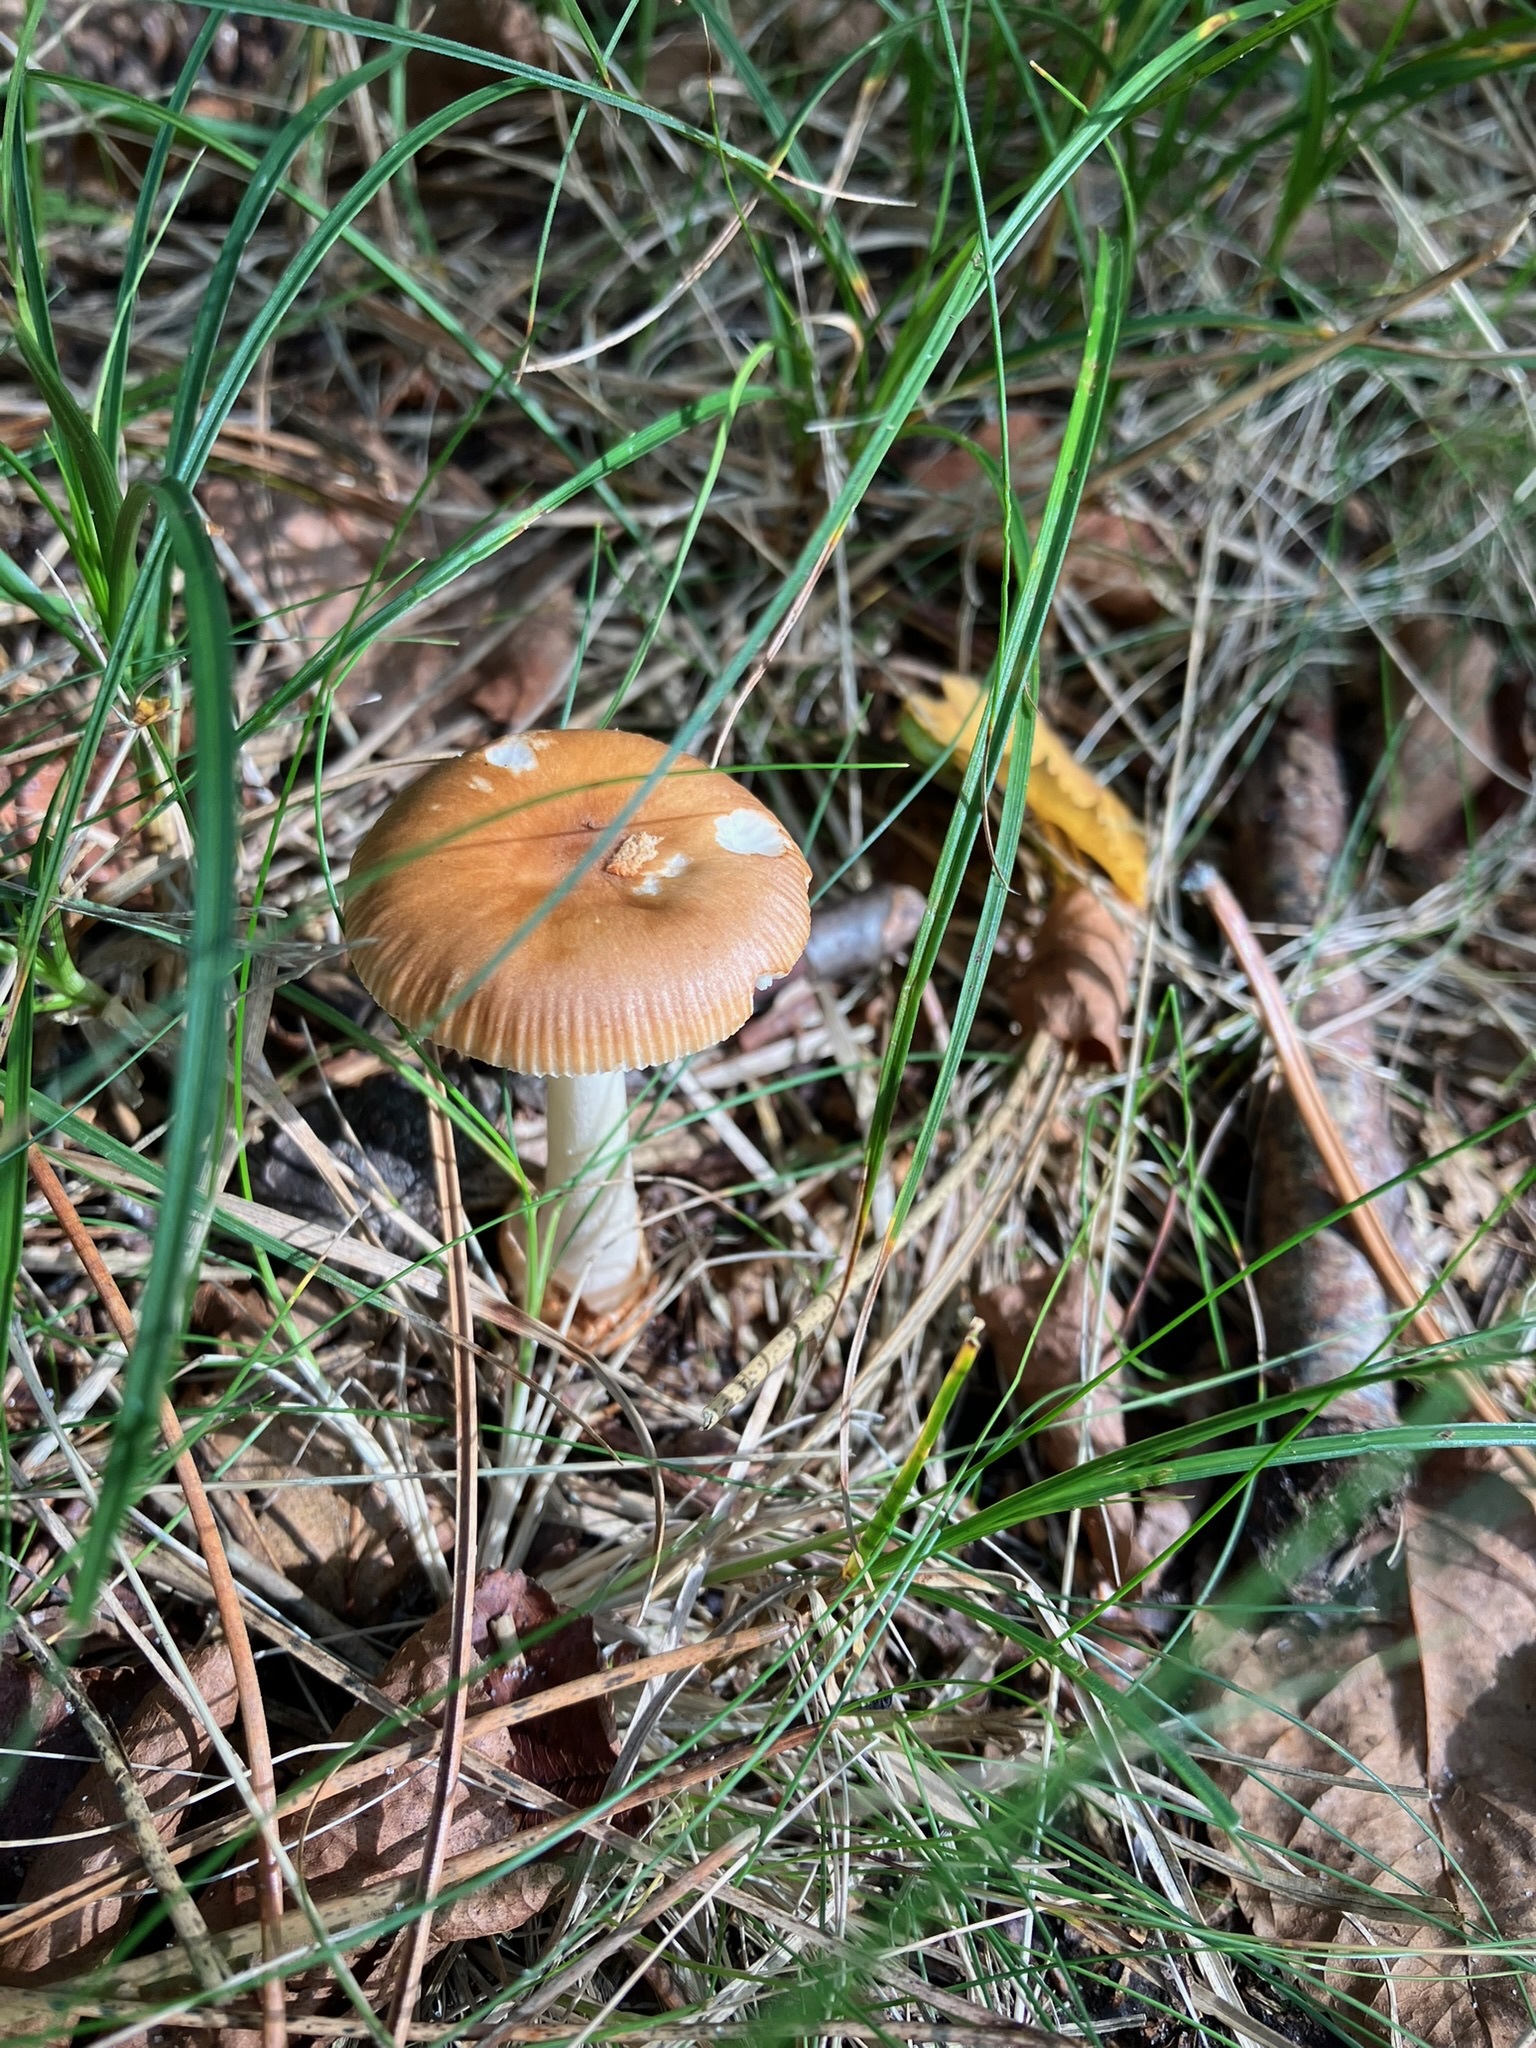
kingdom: Fungi
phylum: Basidiomycota
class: Agaricomycetes
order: Agaricales
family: Amanitaceae
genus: Amanita
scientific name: Amanita fulva
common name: Tawny grisette
